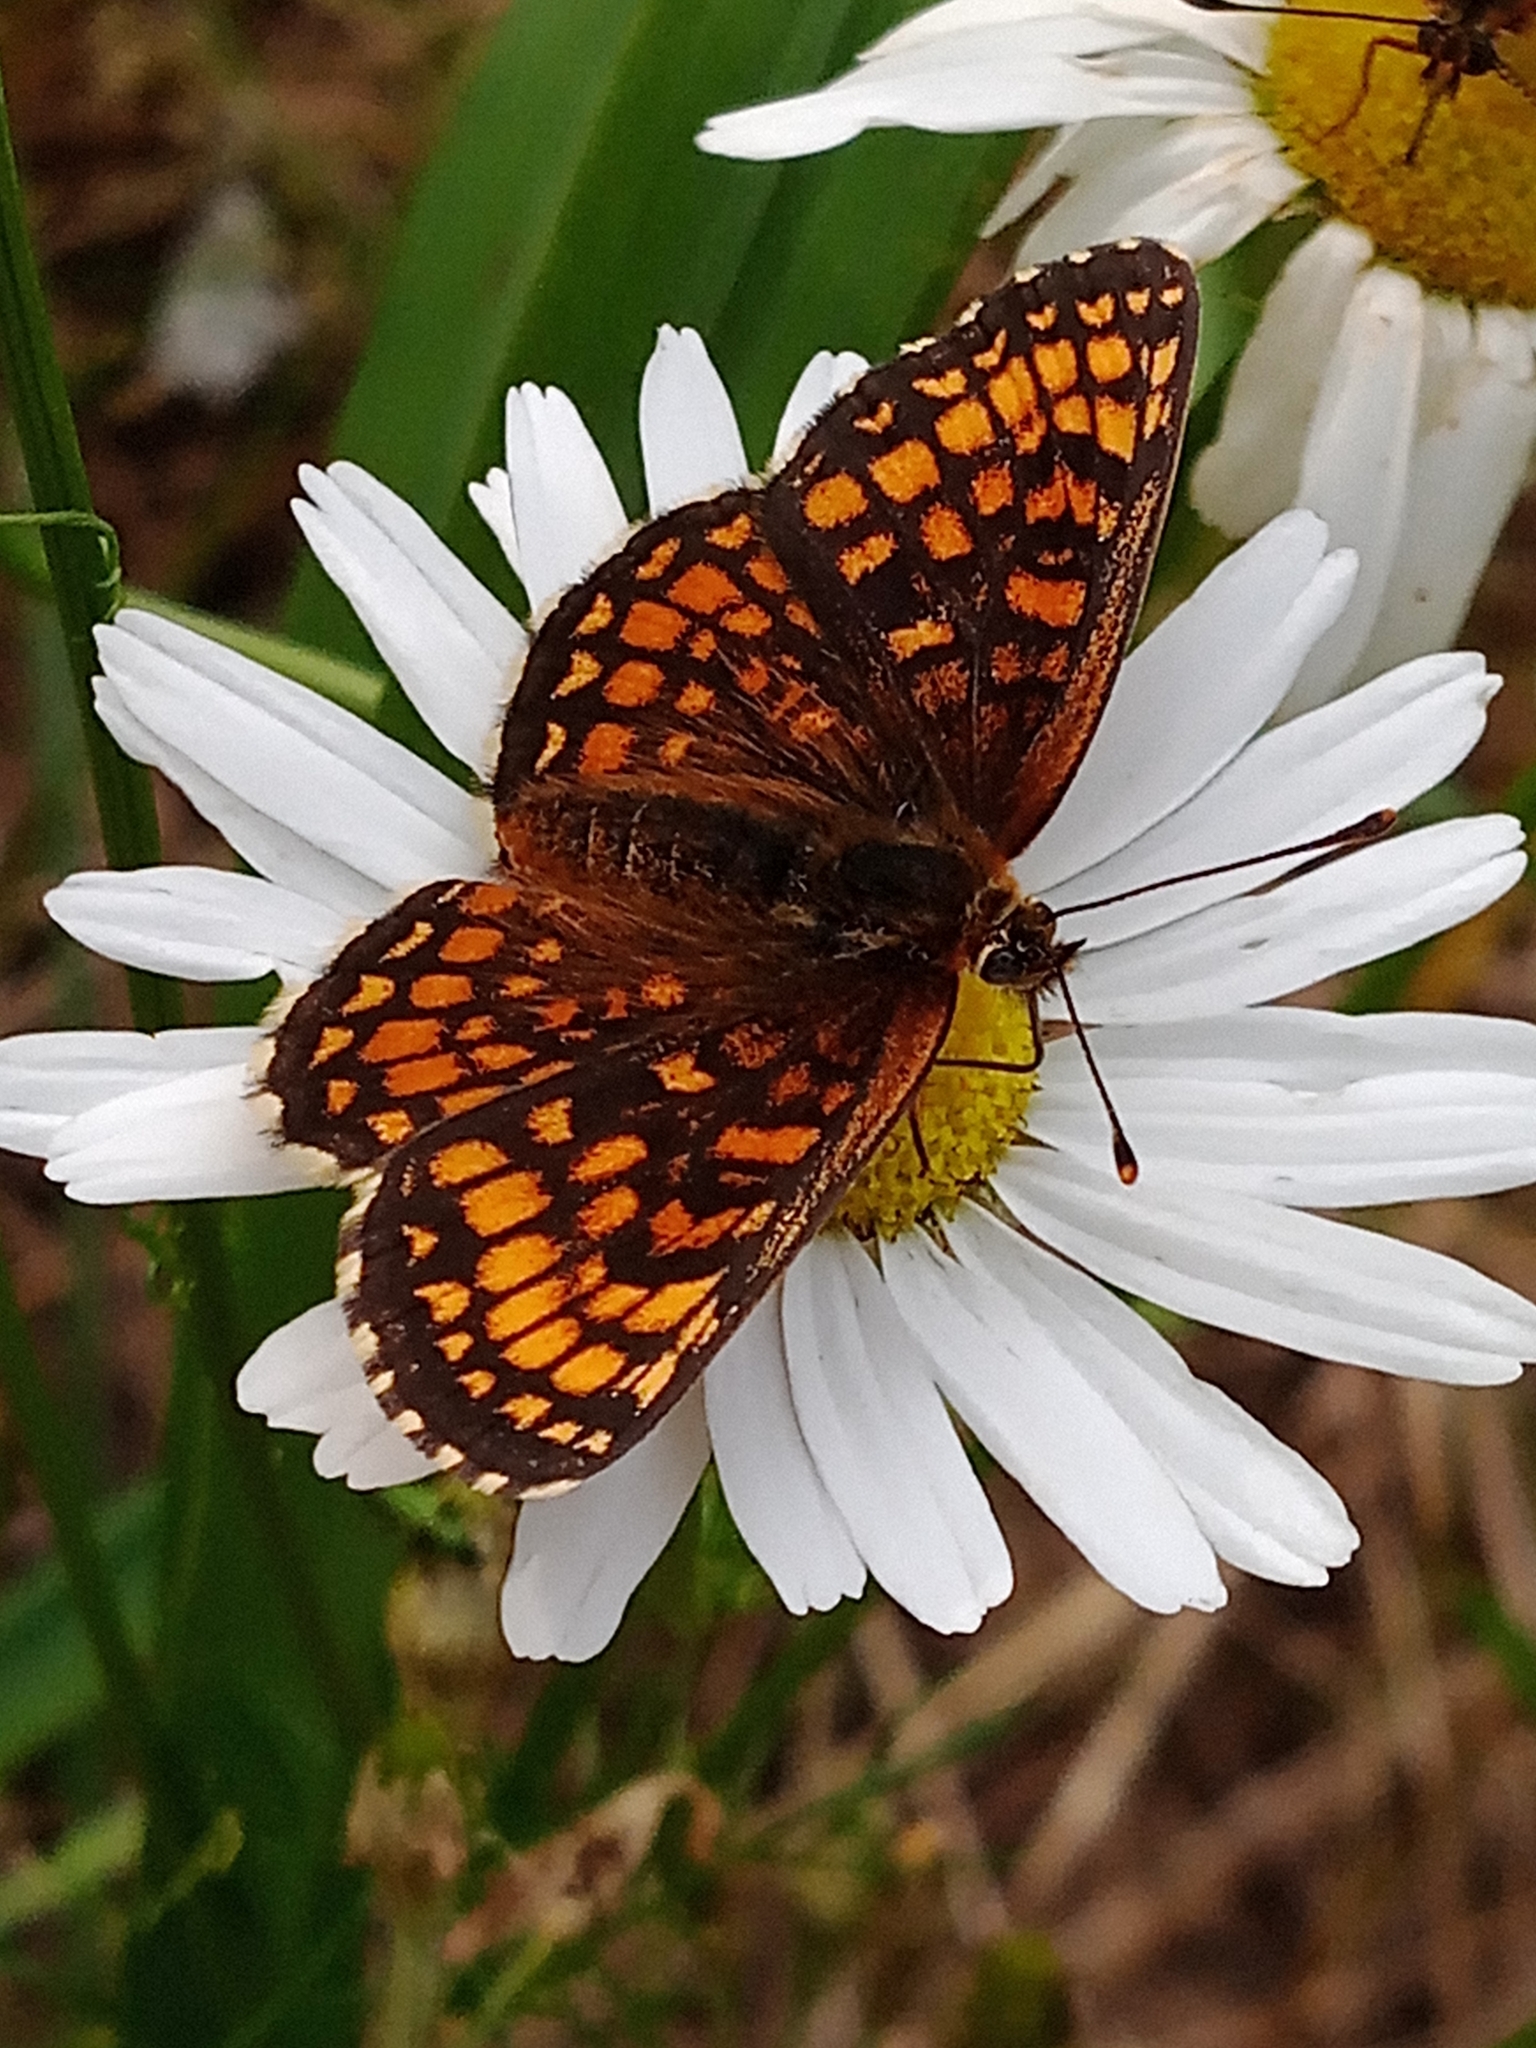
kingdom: Animalia
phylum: Arthropoda
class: Insecta
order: Lepidoptera
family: Nymphalidae
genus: Melitaea
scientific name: Melitaea athalia
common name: Heath fritillary
